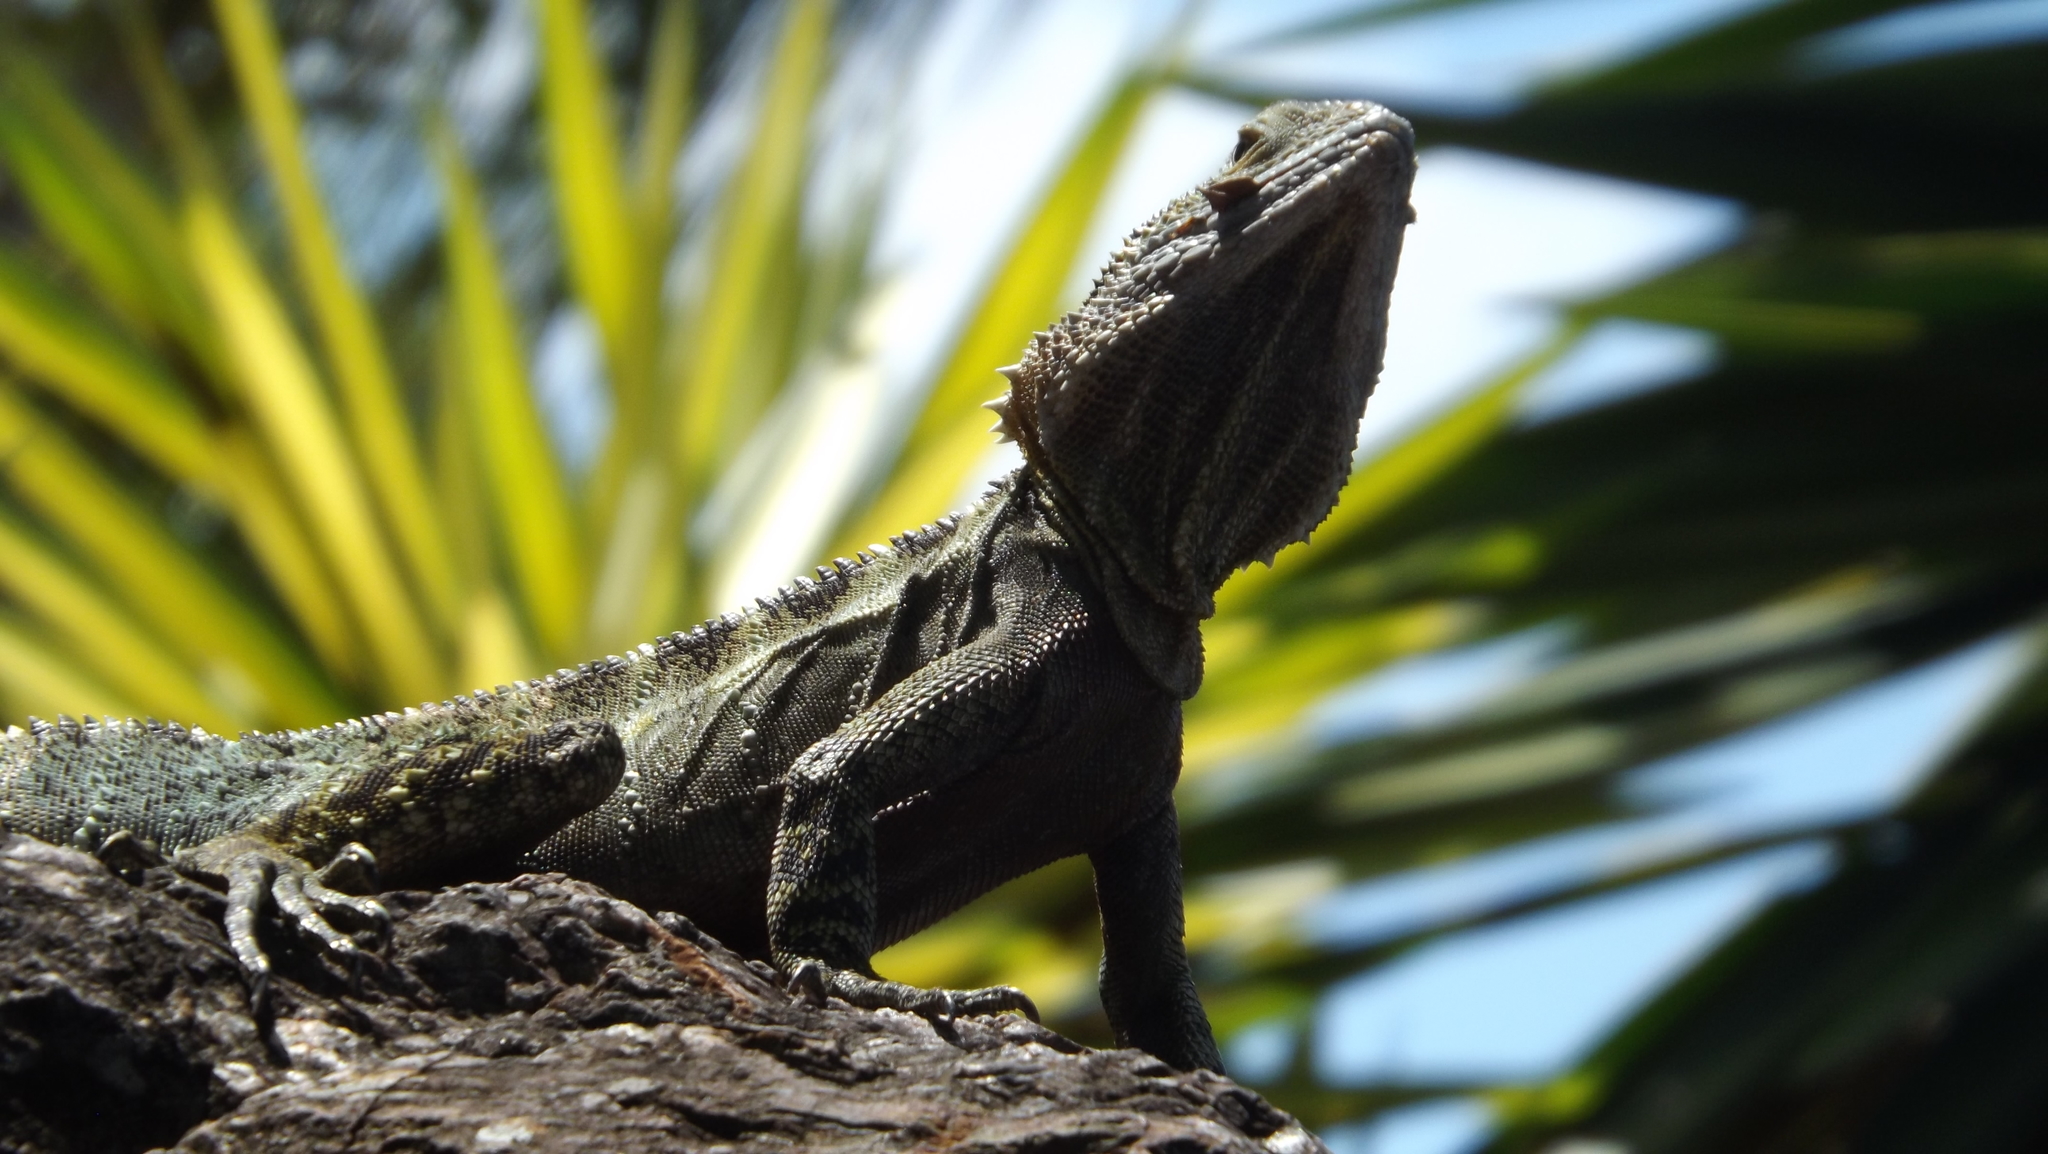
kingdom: Animalia
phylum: Chordata
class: Squamata
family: Agamidae
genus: Intellagama
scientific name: Intellagama lesueurii
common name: Eastern water dragon
